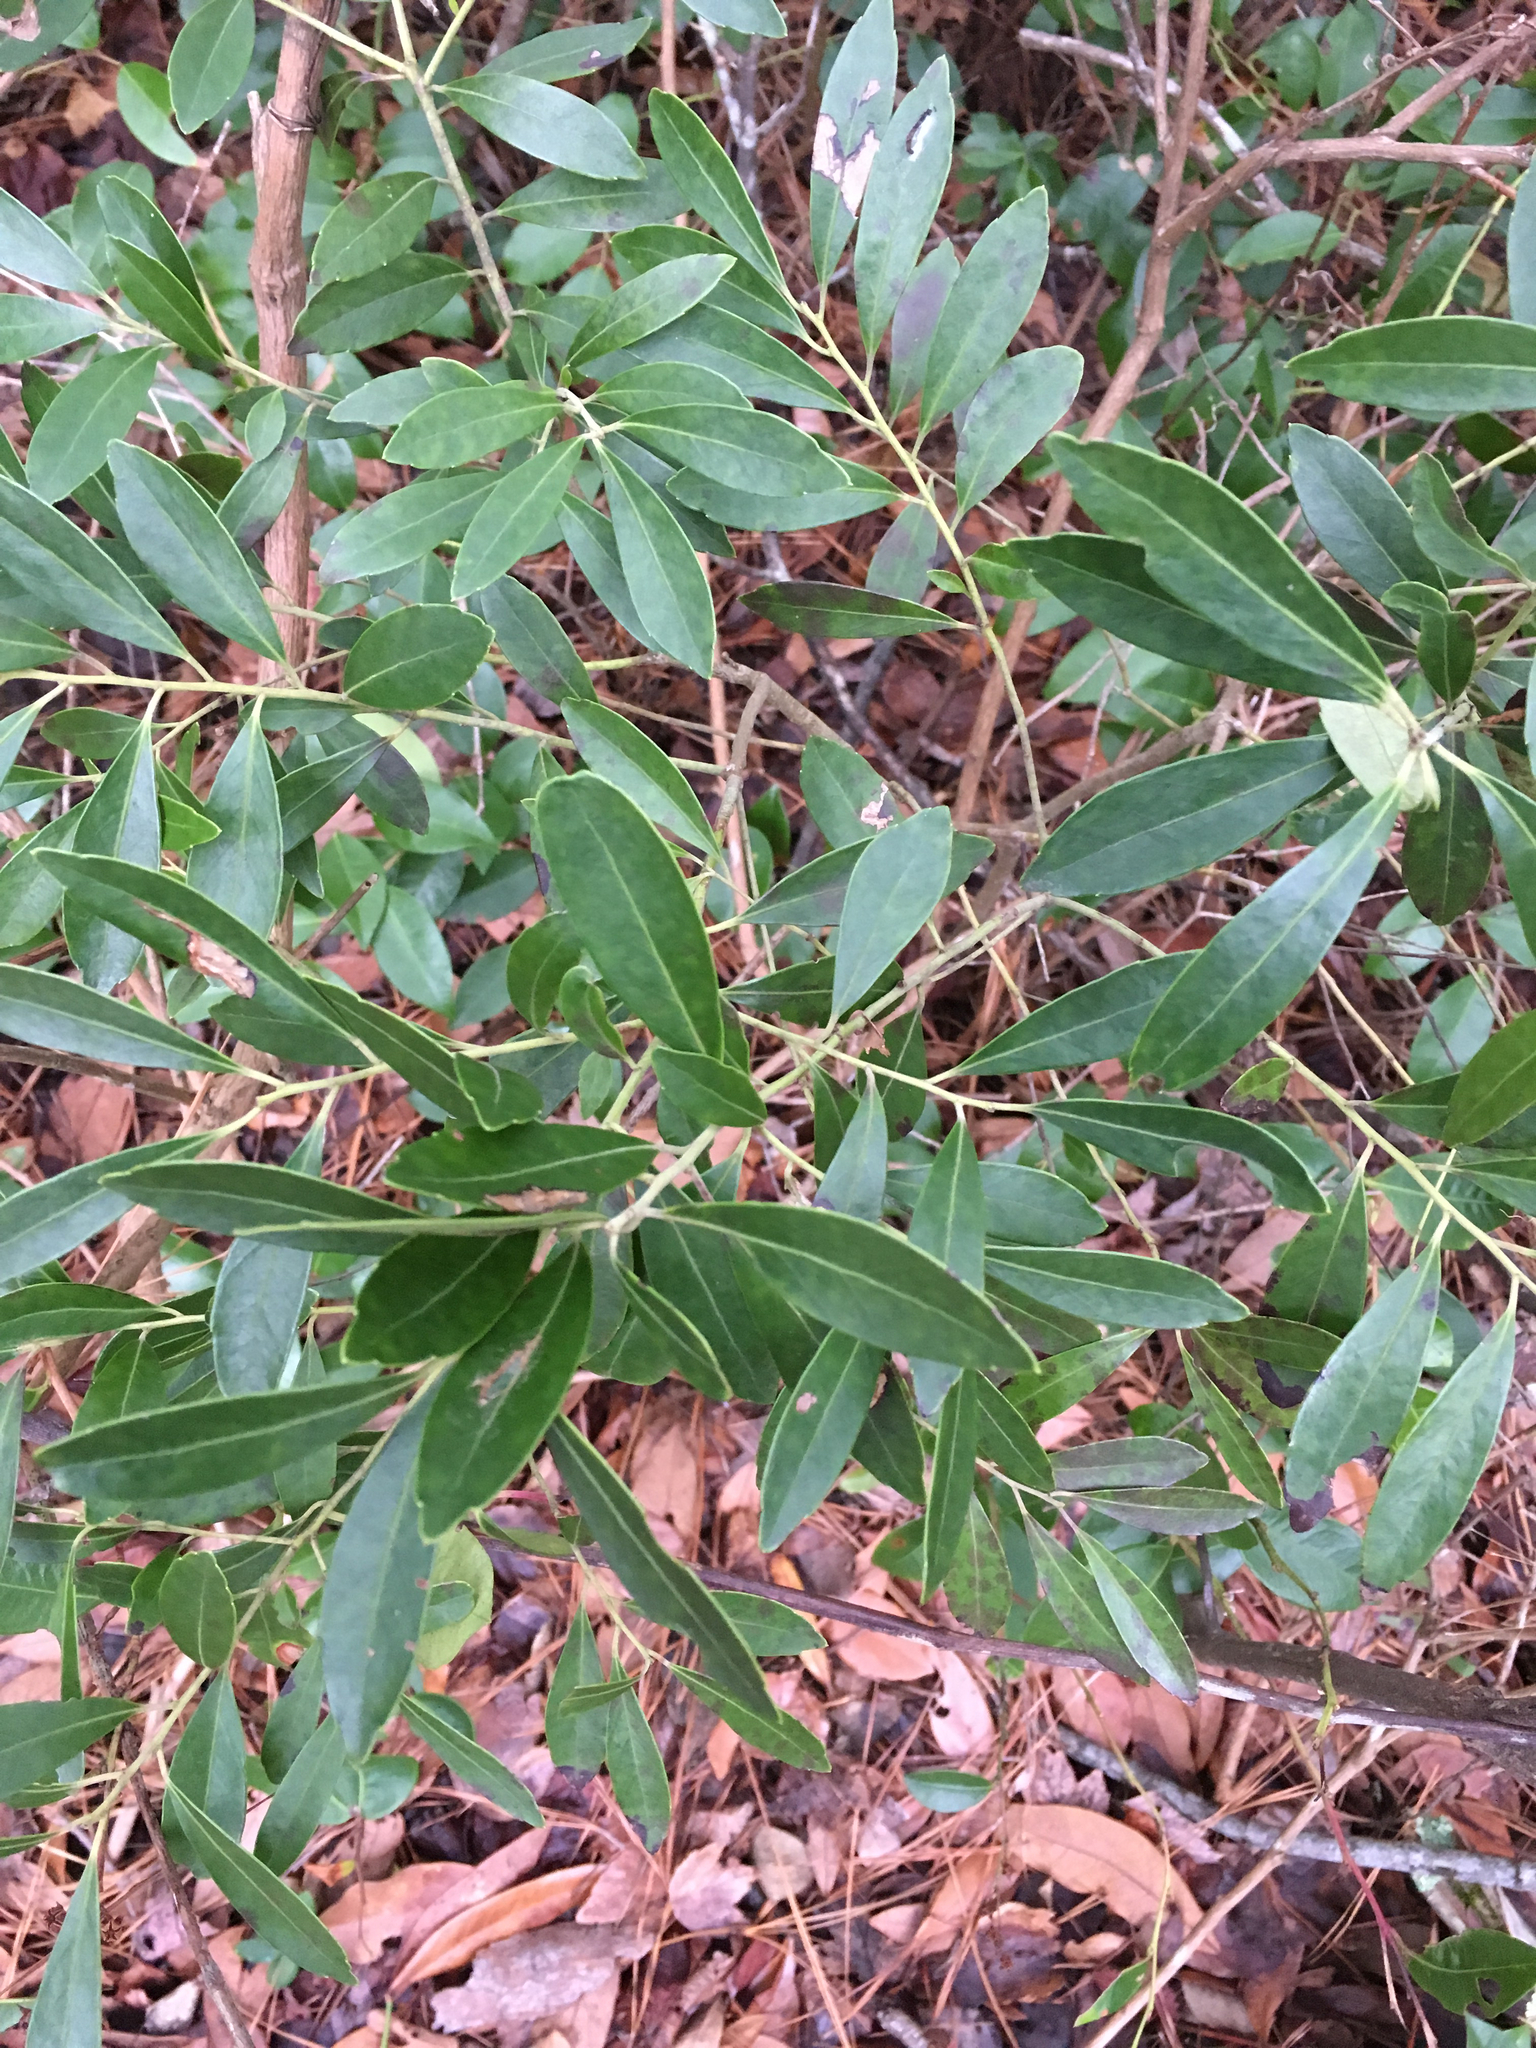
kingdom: Plantae
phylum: Tracheophyta
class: Magnoliopsida
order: Aquifoliales
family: Aquifoliaceae
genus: Ilex
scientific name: Ilex glabra
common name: Bitter gallberry
